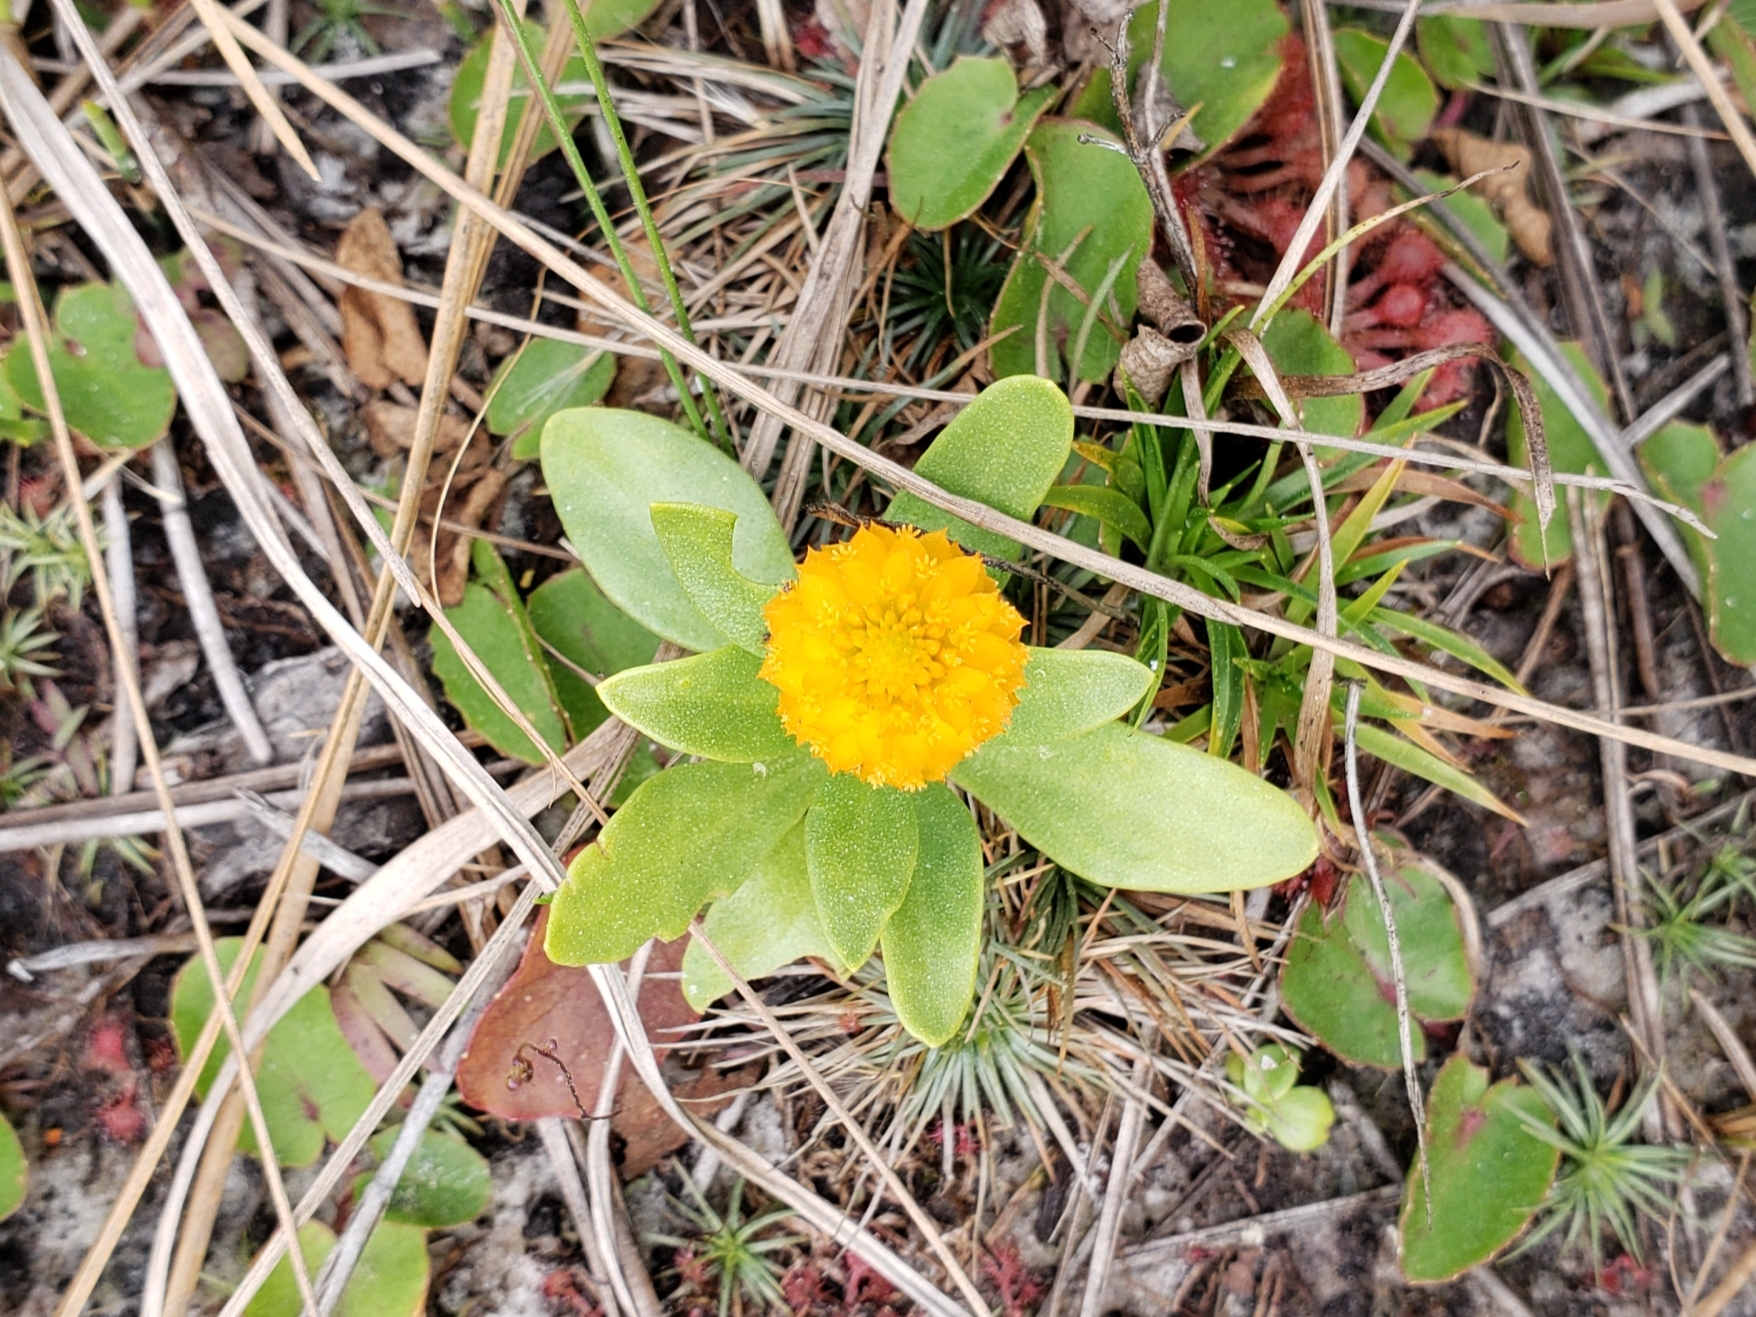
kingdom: Plantae
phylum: Tracheophyta
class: Magnoliopsida
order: Fabales
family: Polygalaceae
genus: Polygala
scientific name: Polygala lutea
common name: Orange milkwort
